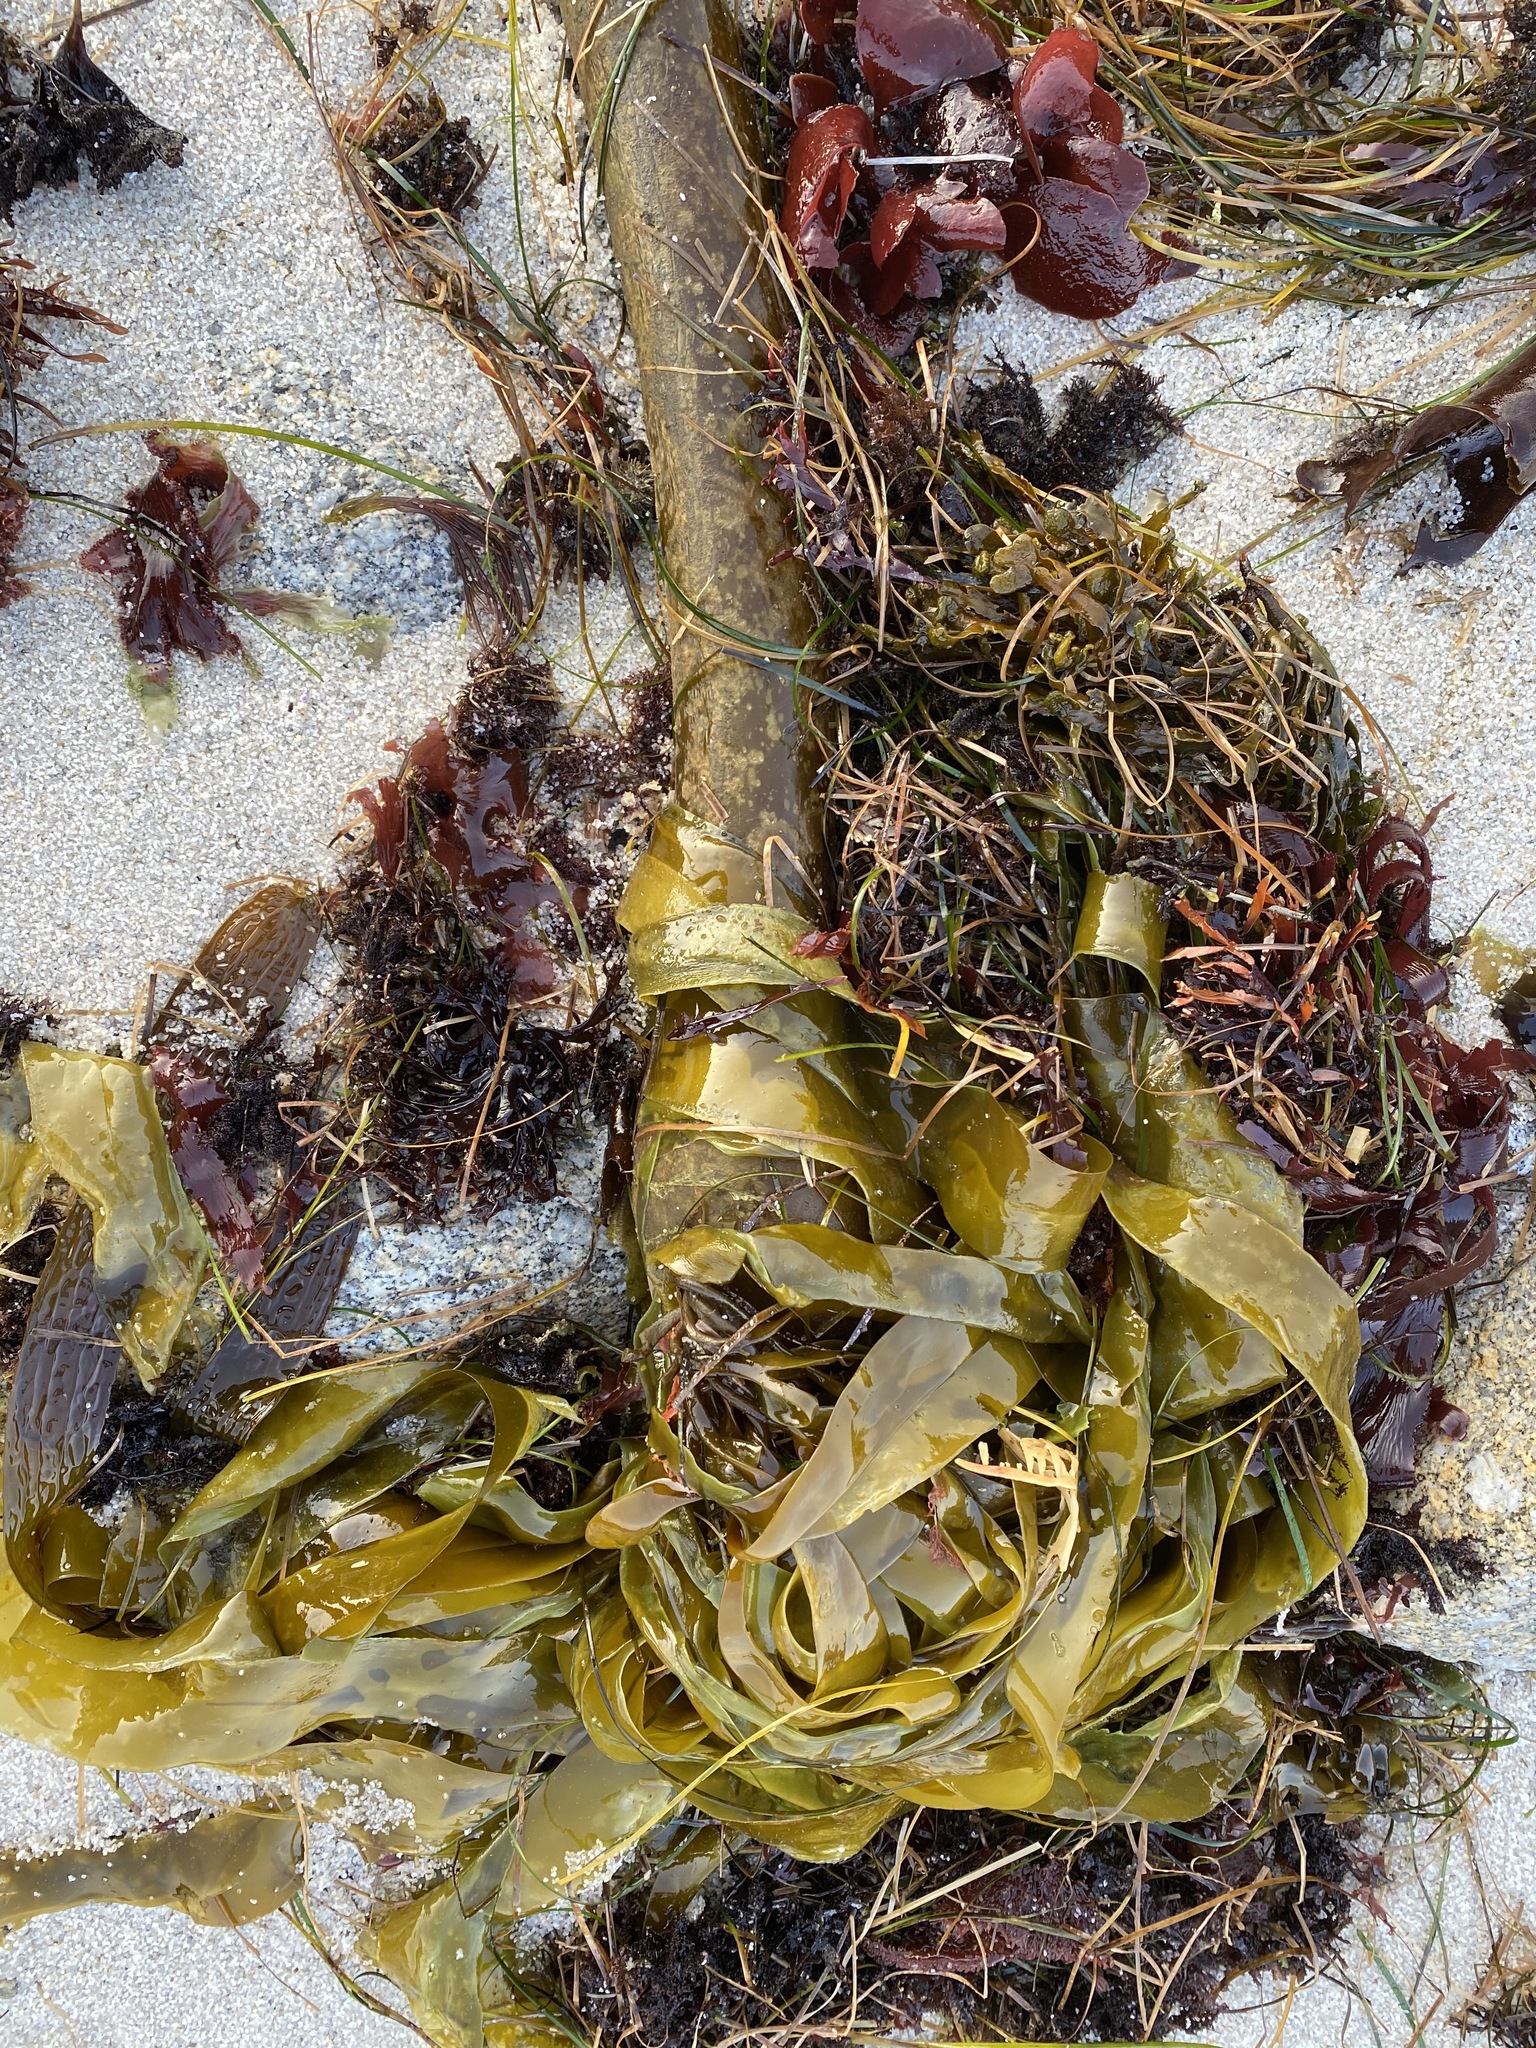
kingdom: Chromista
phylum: Ochrophyta
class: Phaeophyceae
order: Laminariales
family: Laminariaceae
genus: Nereocystis
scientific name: Nereocystis luetkeana
